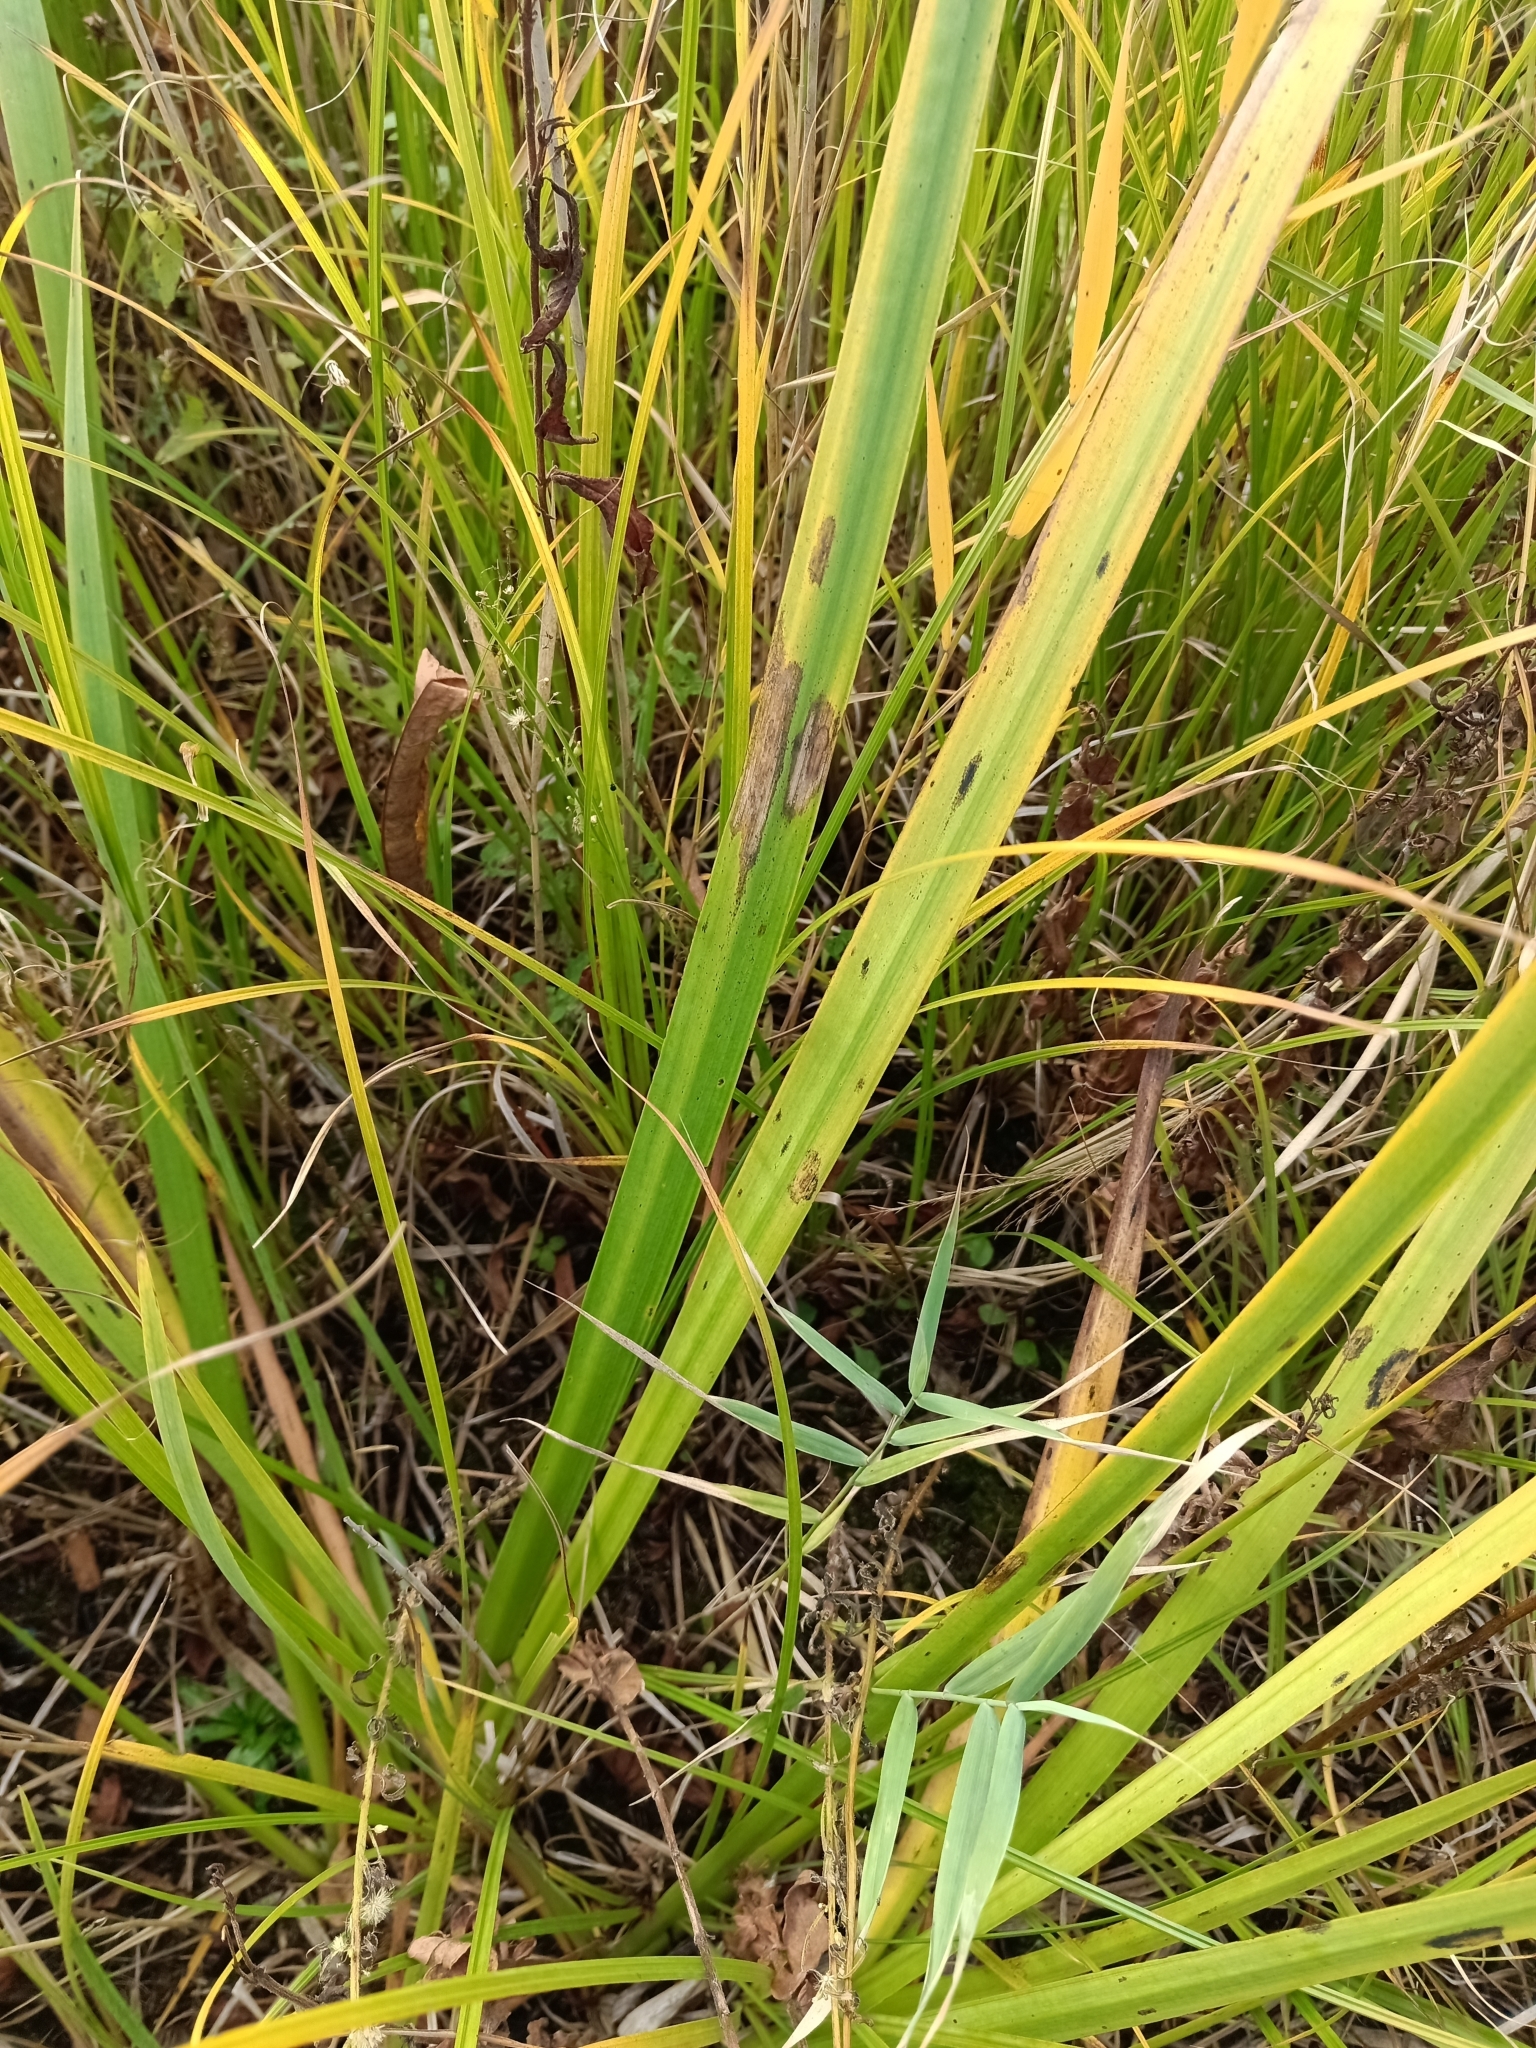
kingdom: Plantae
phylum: Tracheophyta
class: Liliopsida
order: Asparagales
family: Iridaceae
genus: Iris
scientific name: Iris pseudacorus
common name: Yellow flag
